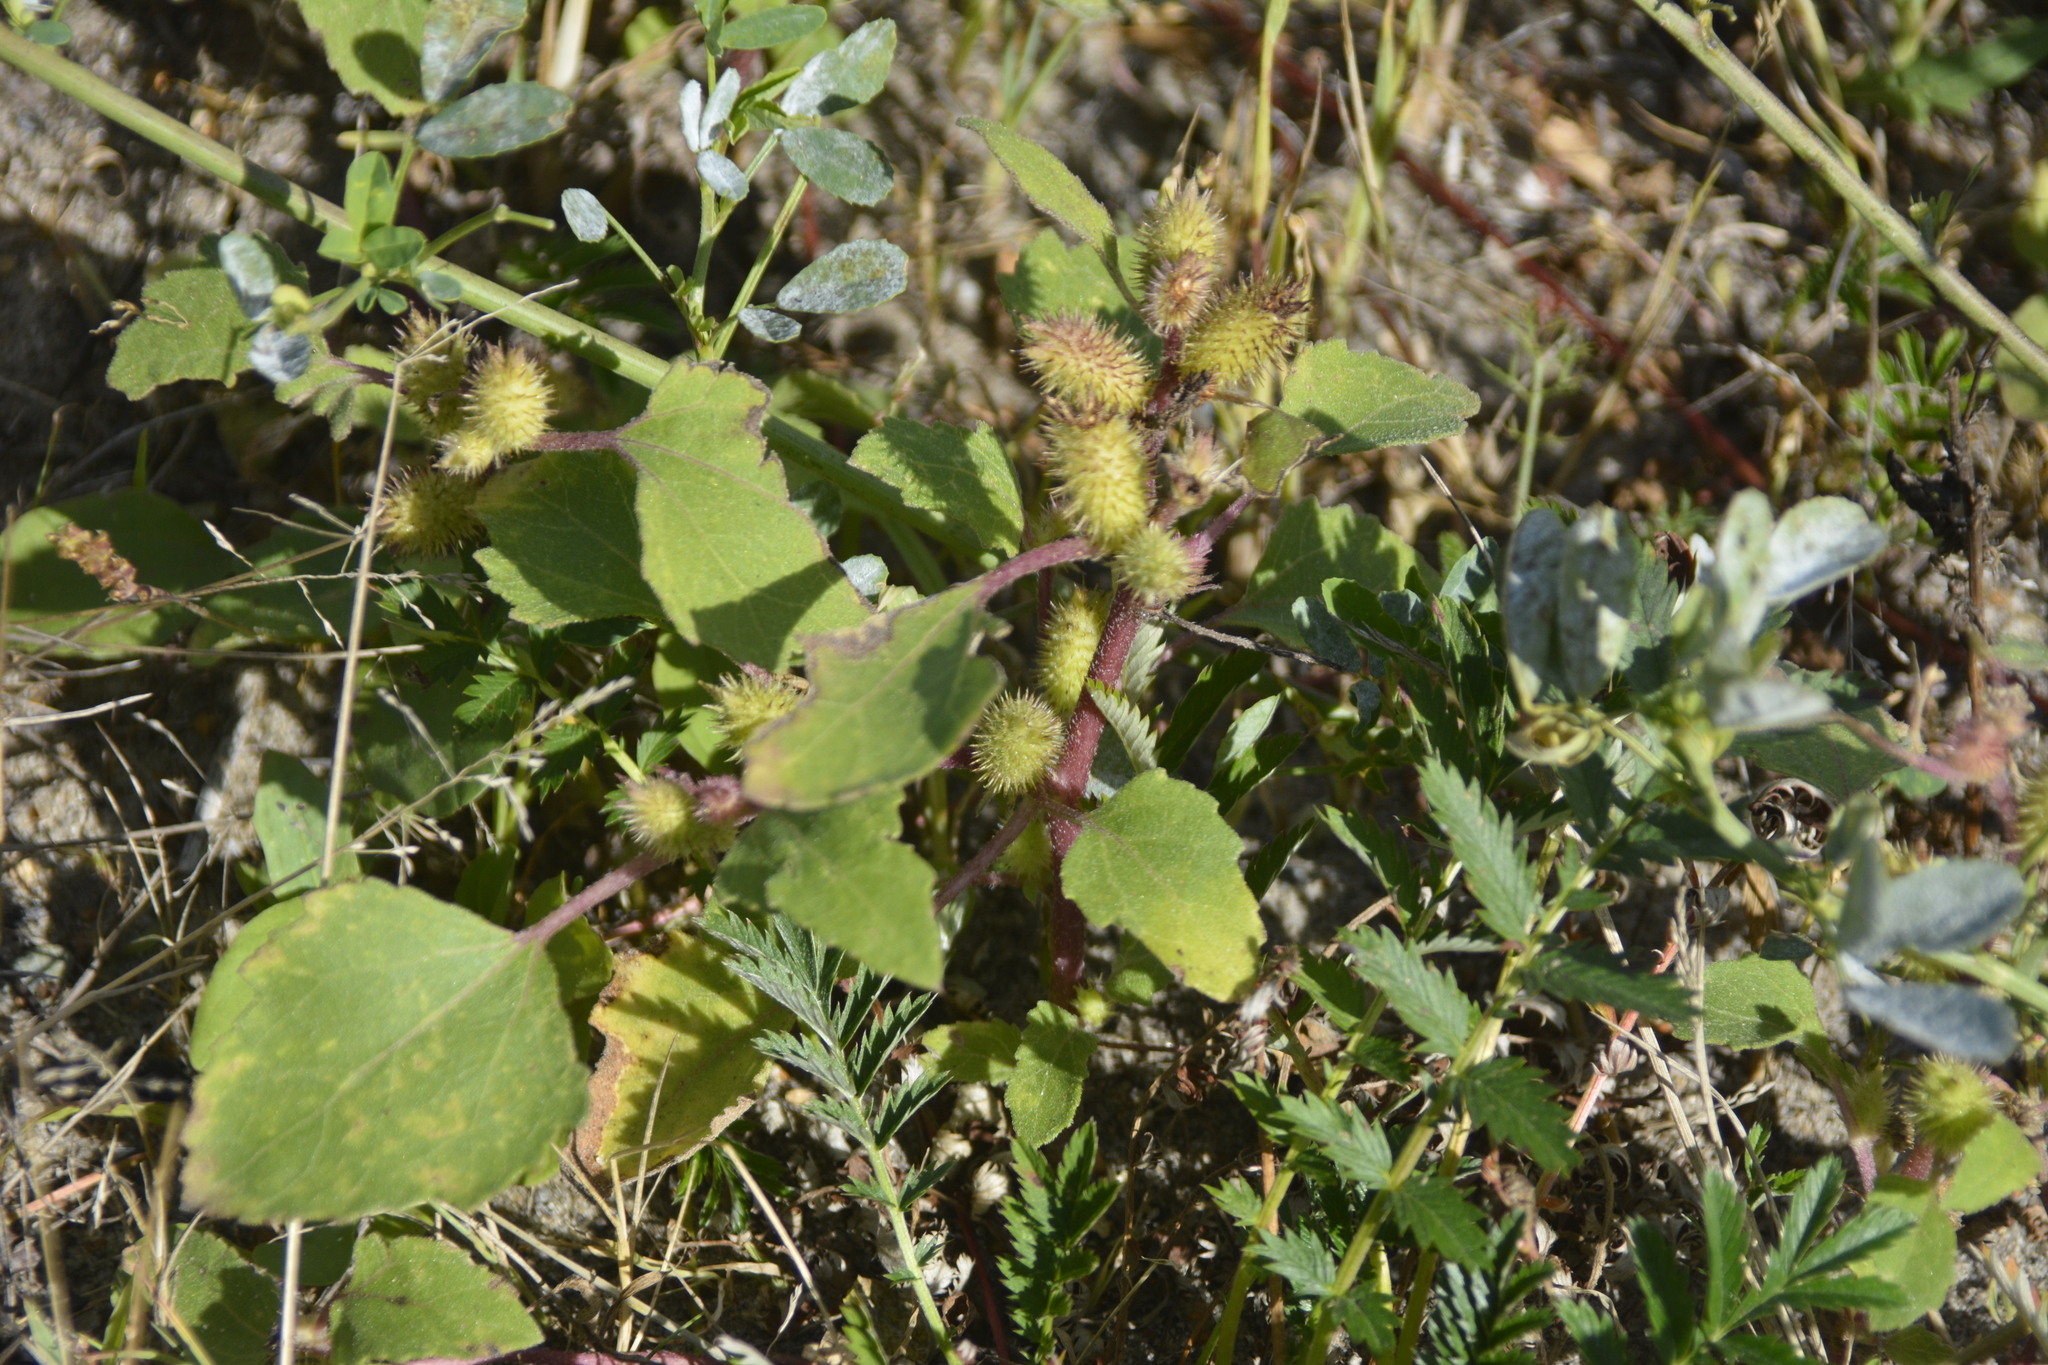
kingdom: Plantae
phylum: Tracheophyta
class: Magnoliopsida
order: Asterales
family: Asteraceae
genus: Xanthium
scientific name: Xanthium orientale
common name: Californian burr
